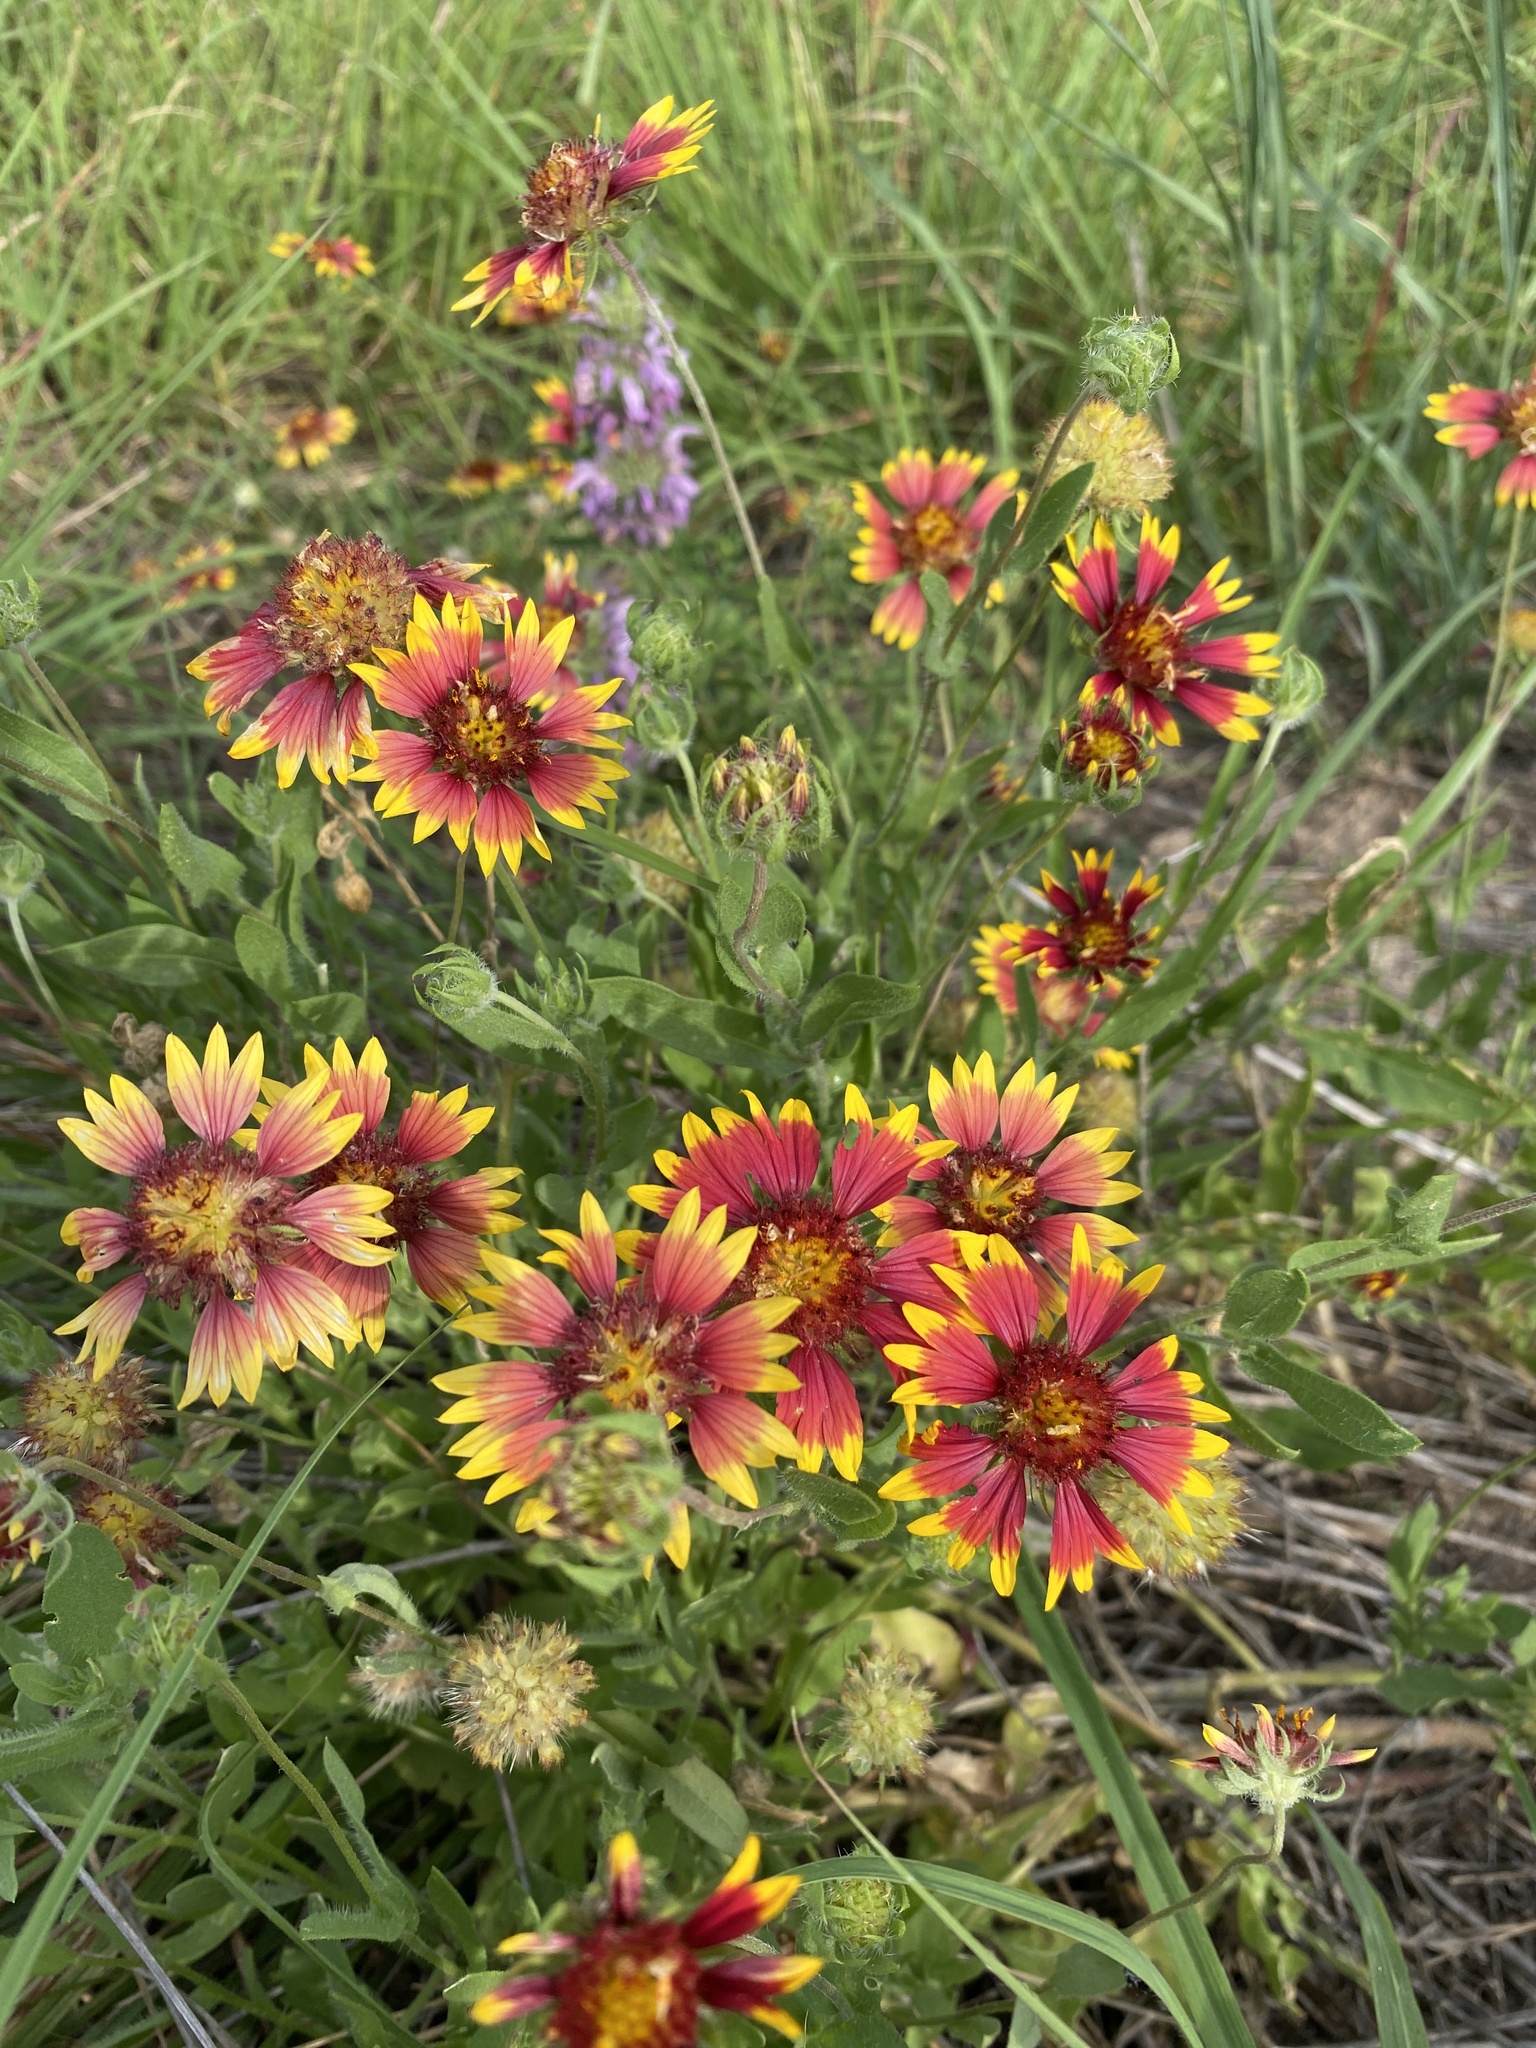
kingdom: Plantae
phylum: Tracheophyta
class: Magnoliopsida
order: Asterales
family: Asteraceae
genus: Gaillardia
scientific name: Gaillardia pulchella
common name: Firewheel
